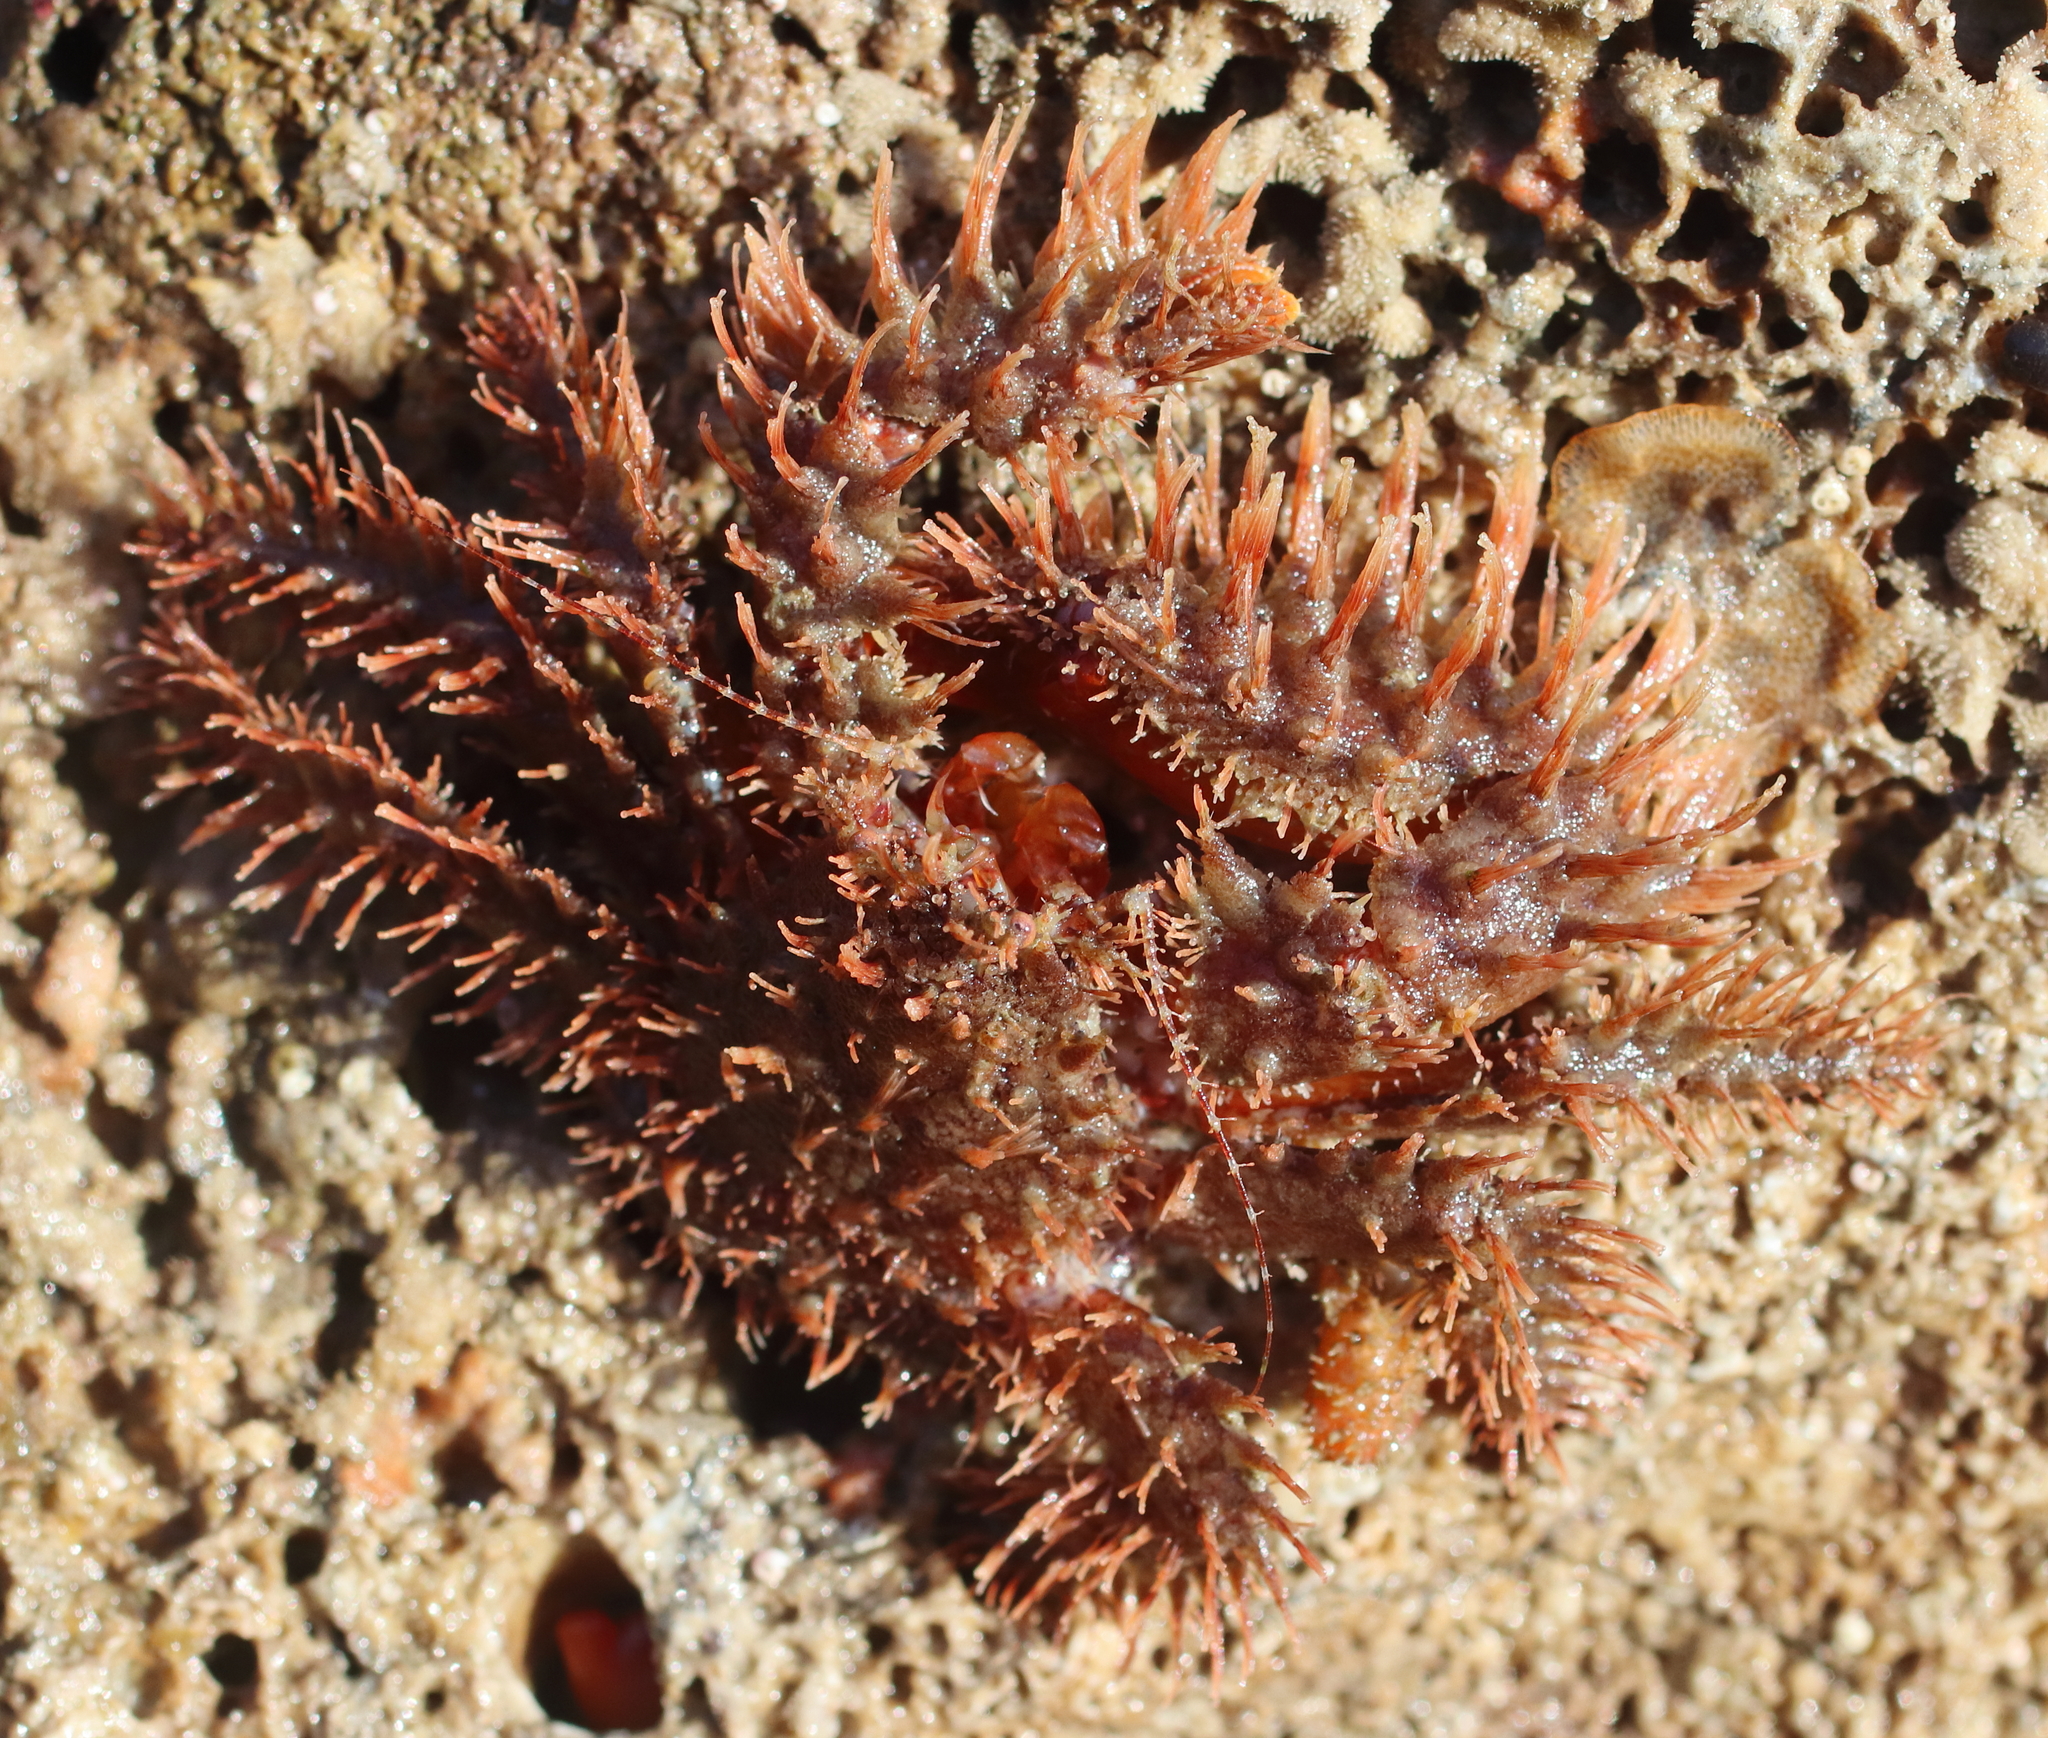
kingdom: Animalia
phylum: Arthropoda
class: Malacostraca
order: Decapoda
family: Hapalogastridae
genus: Hapalogaster
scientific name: Hapalogaster mertensii
